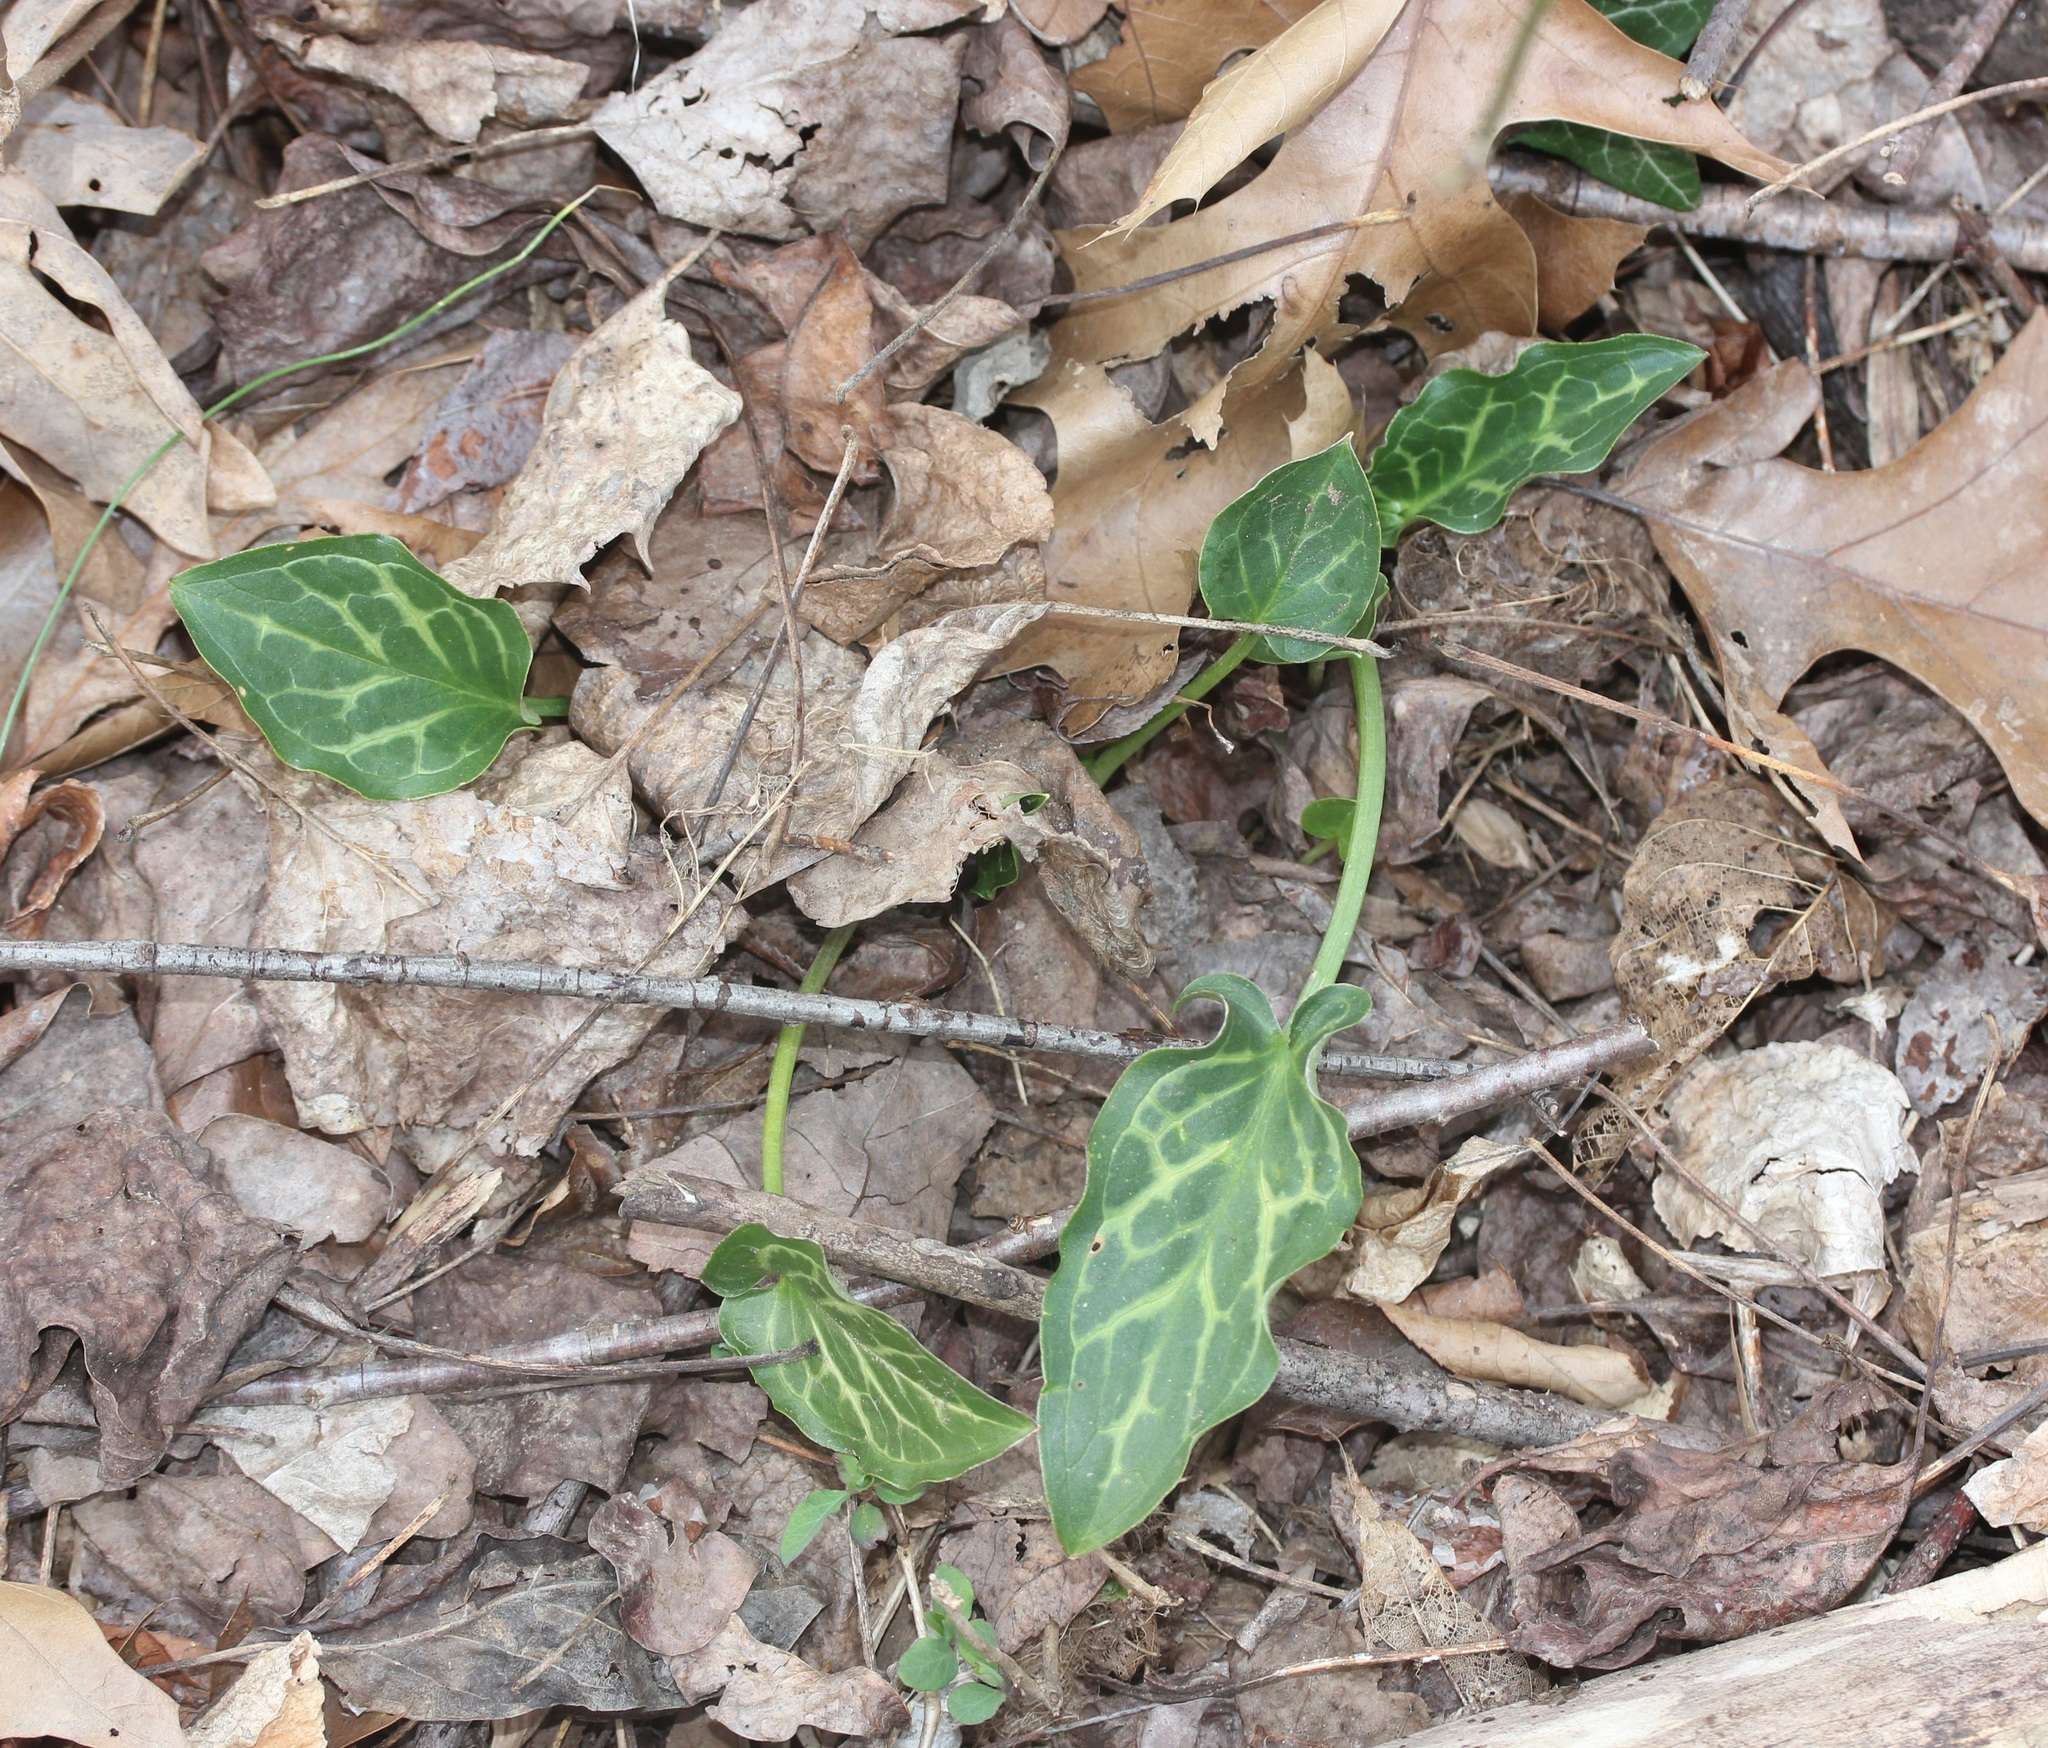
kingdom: Plantae
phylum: Tracheophyta
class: Liliopsida
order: Alismatales
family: Araceae
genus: Arum
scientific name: Arum italicum
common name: Italian lords-and-ladies
